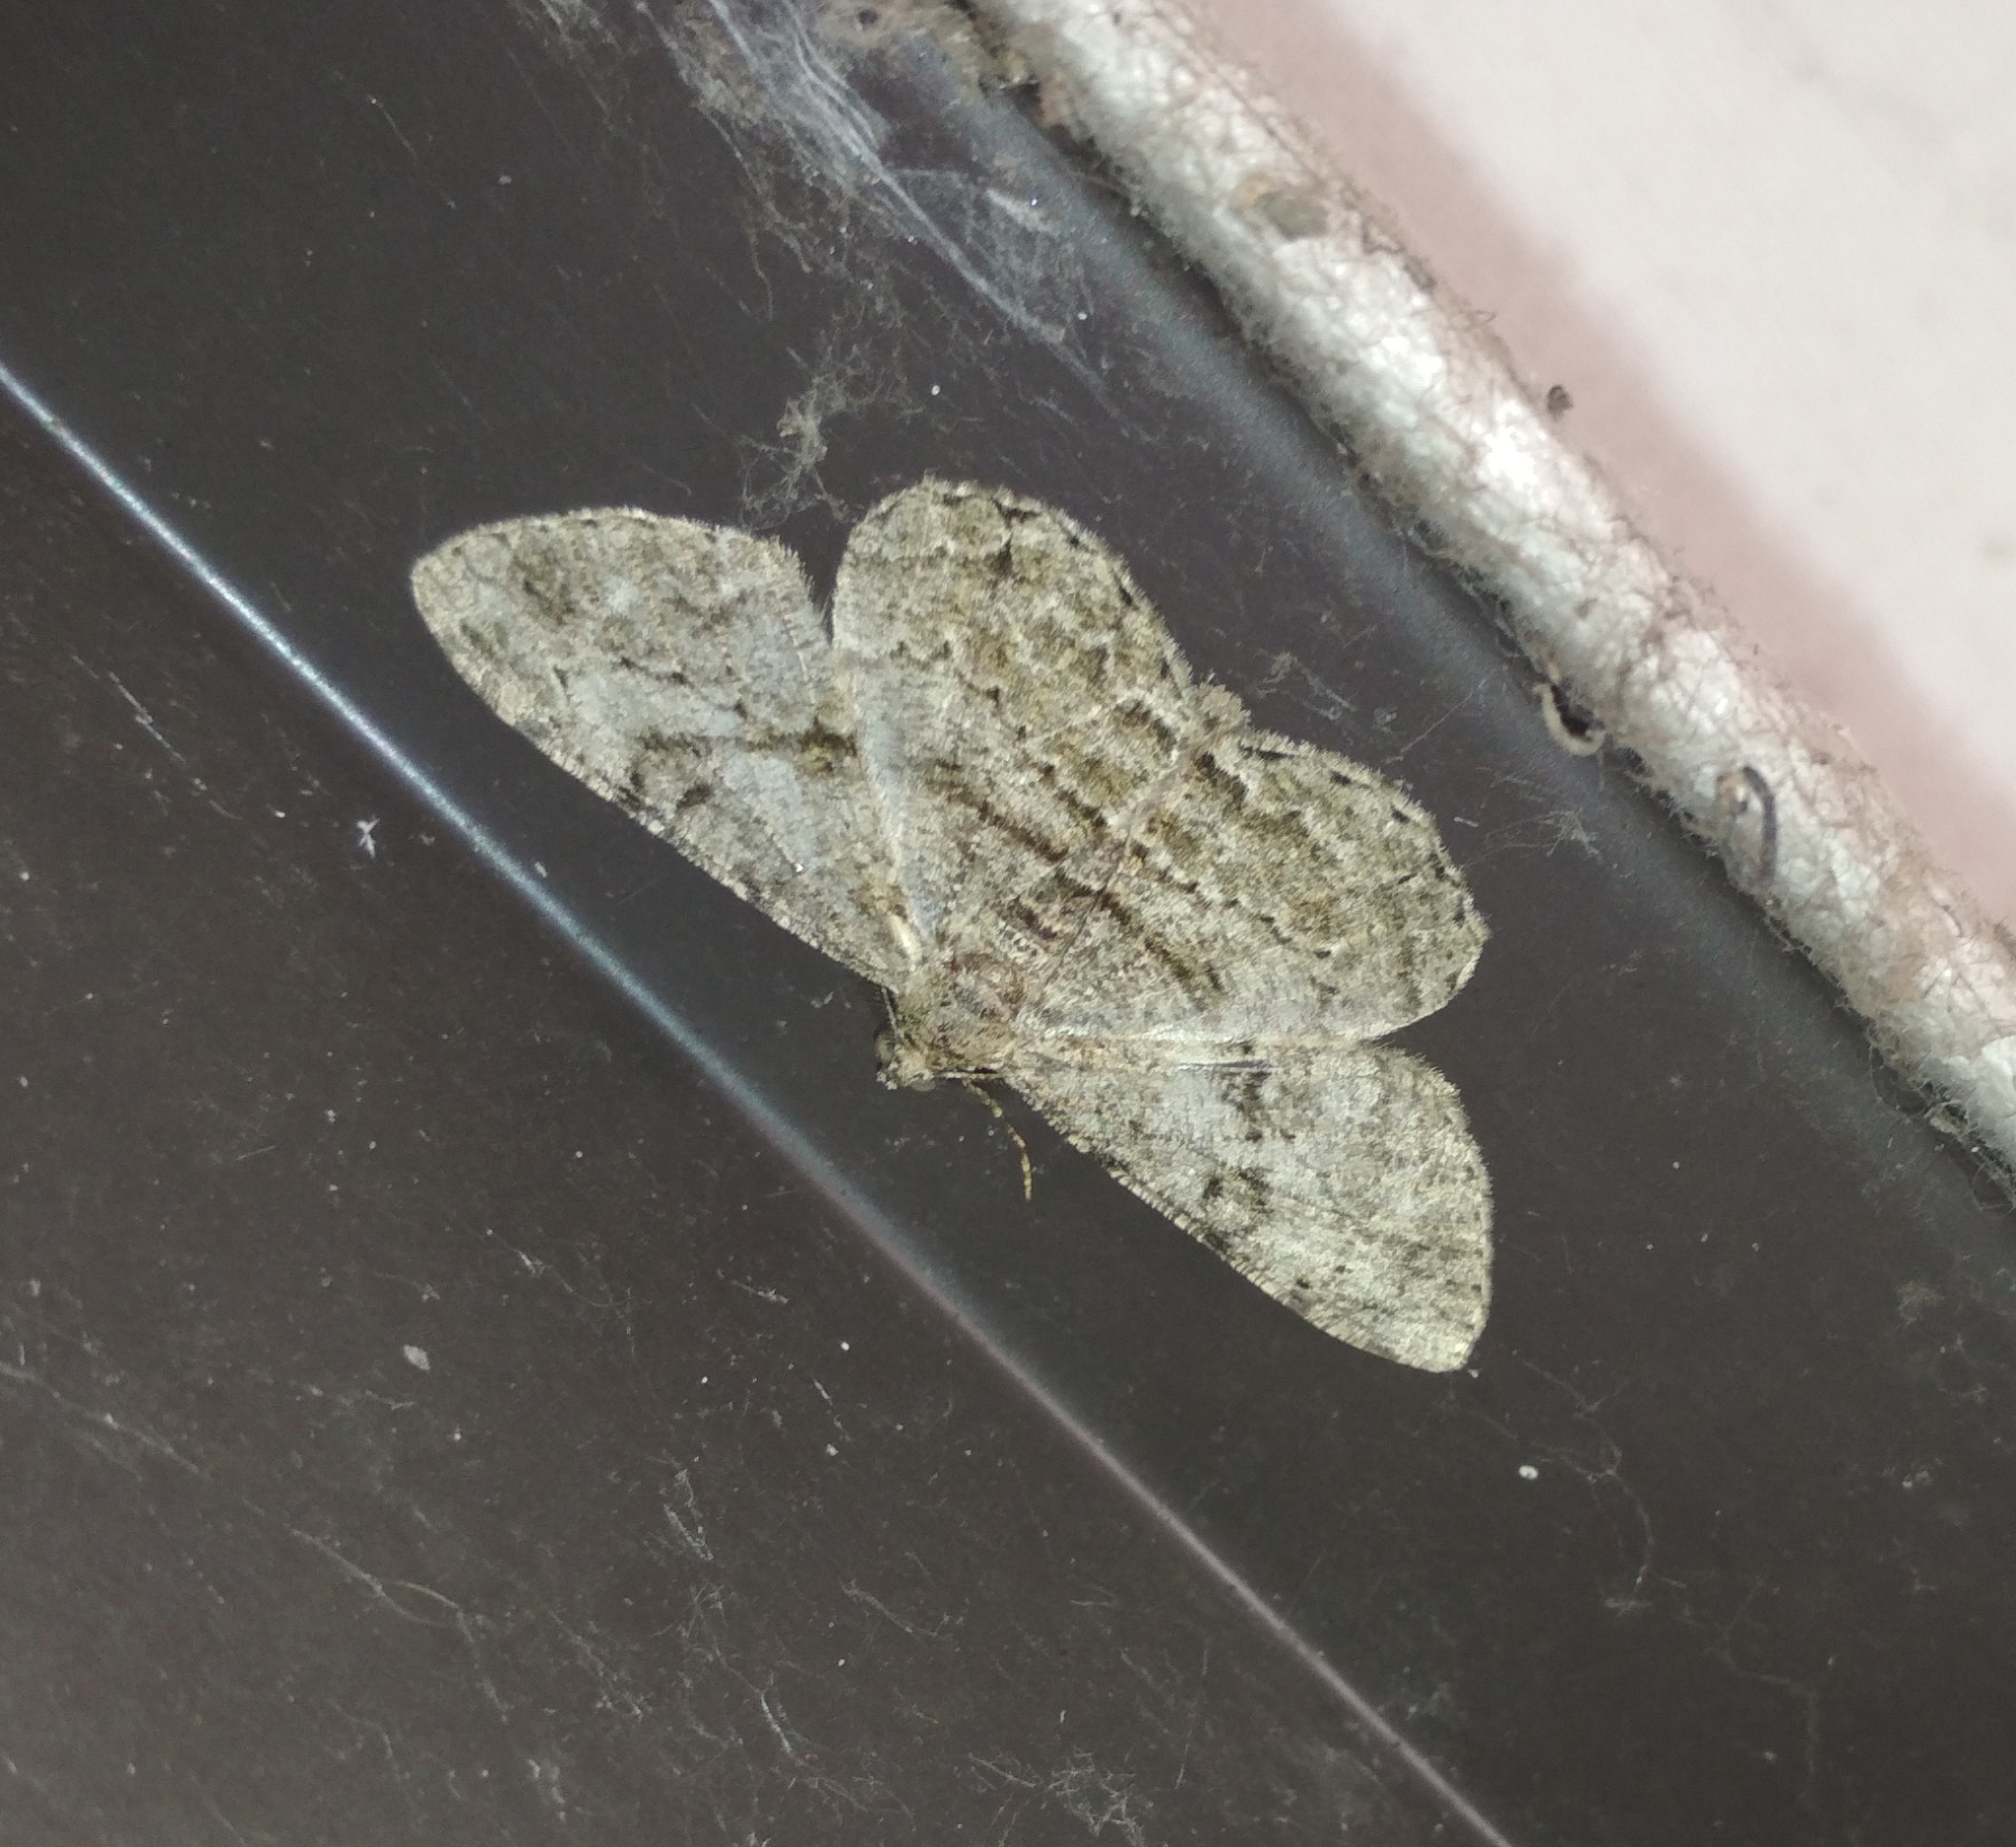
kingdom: Animalia
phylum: Arthropoda
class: Insecta
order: Lepidoptera
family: Geometridae
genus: Peribatodes
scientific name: Peribatodes rhomboidaria
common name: Willow beauty
